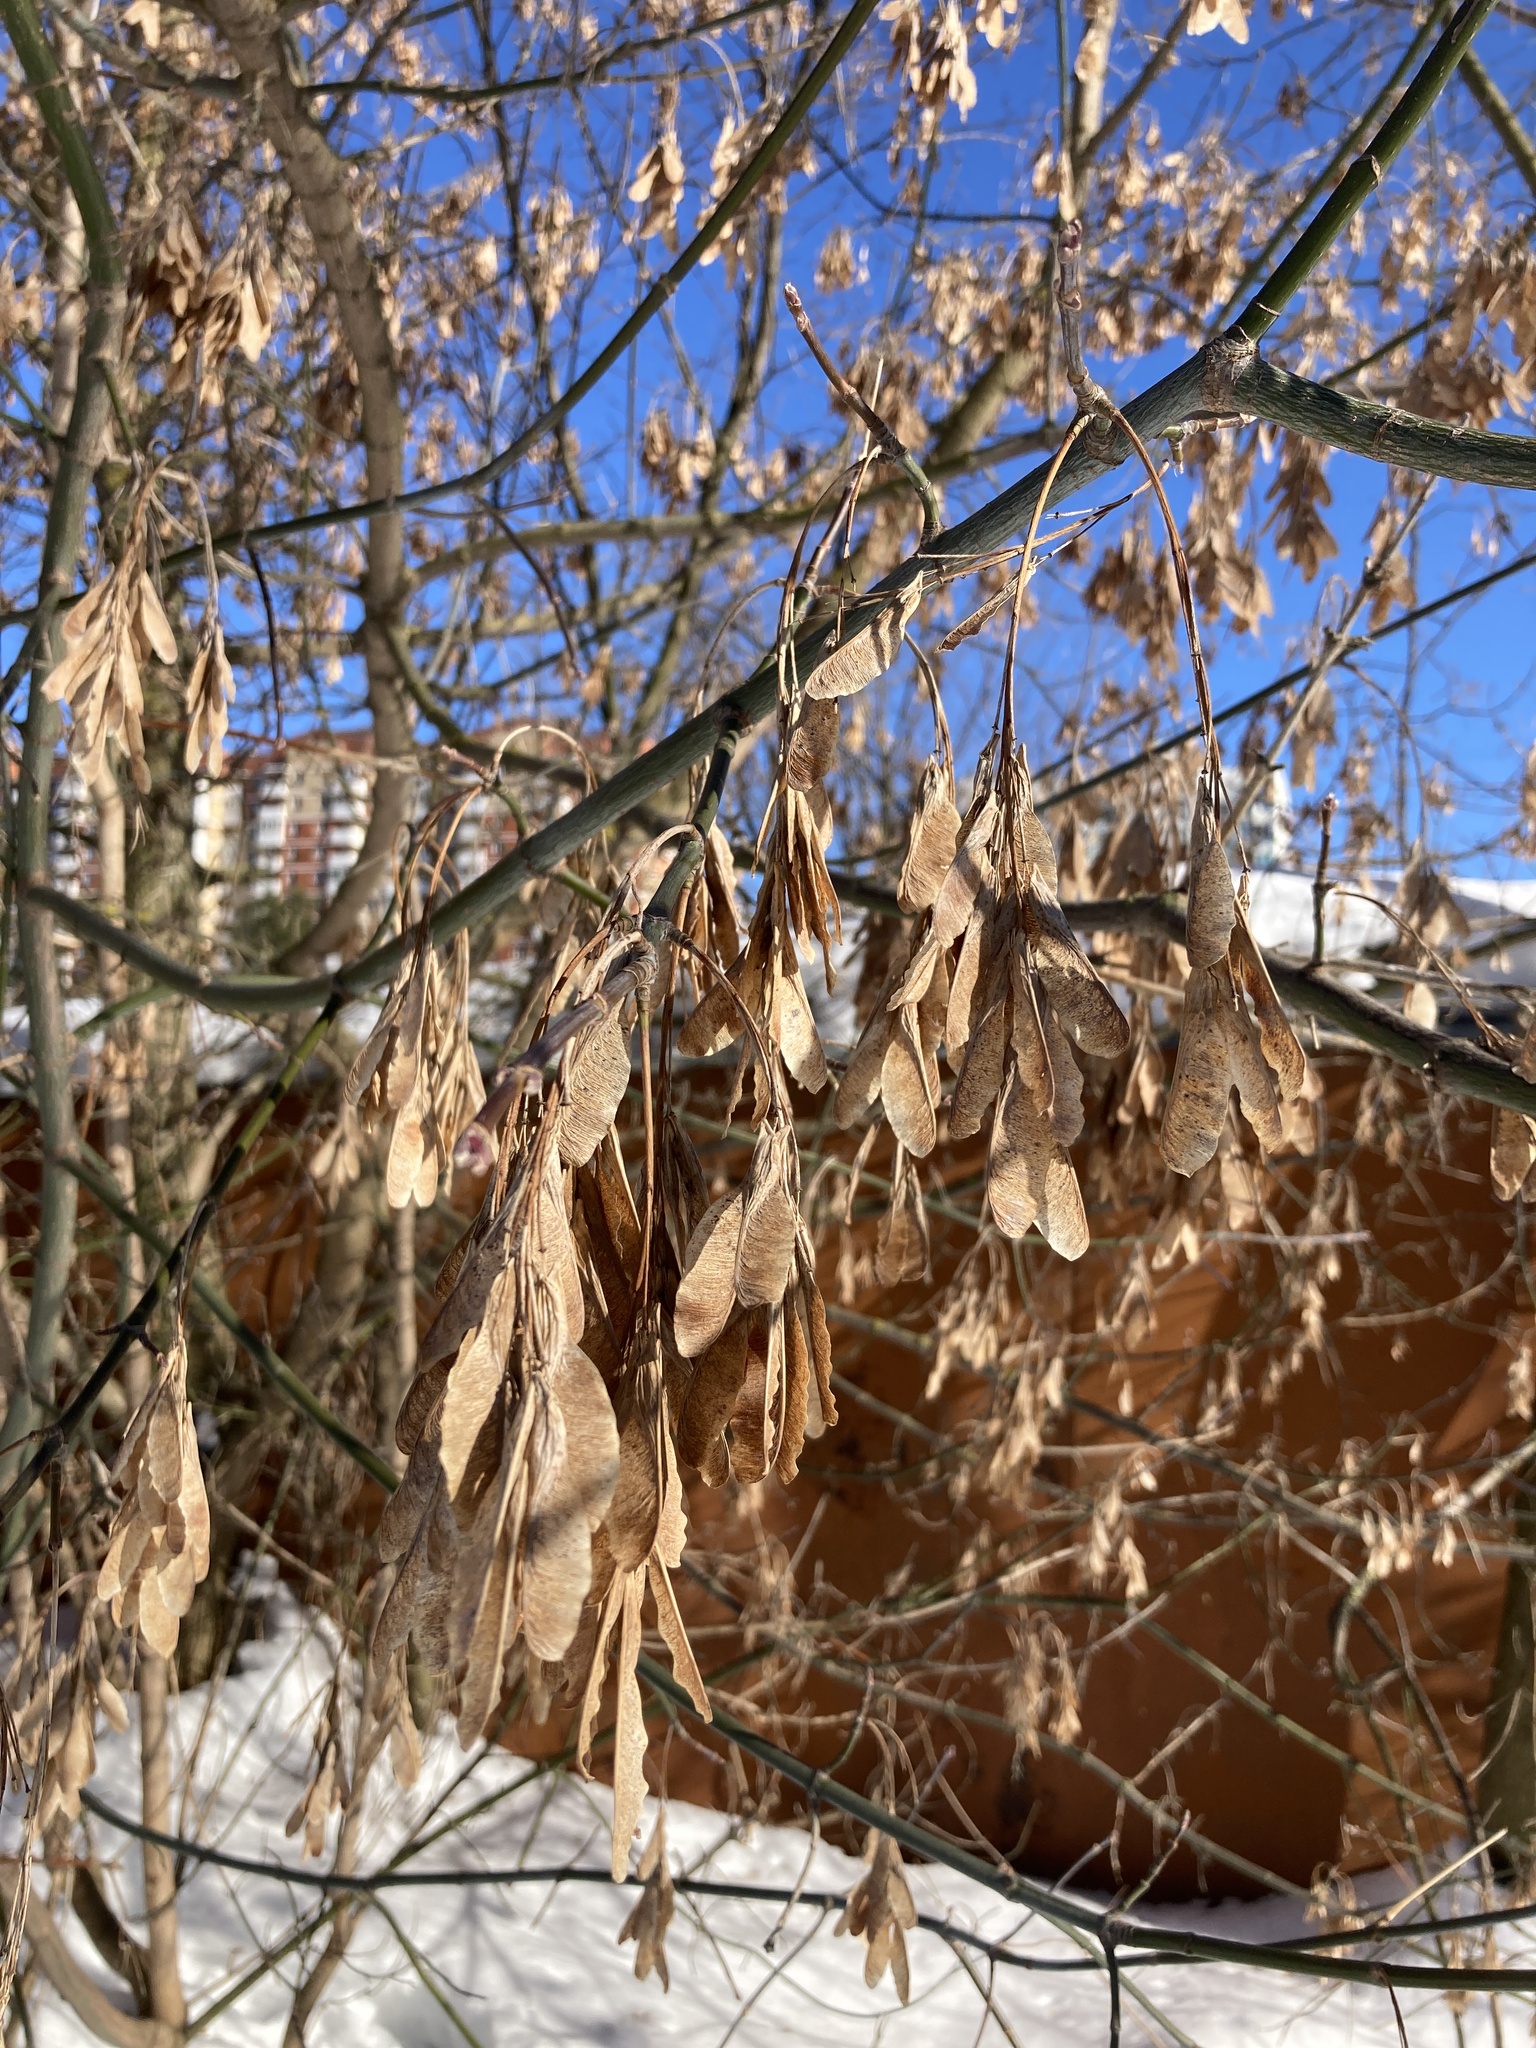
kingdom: Plantae
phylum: Tracheophyta
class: Magnoliopsida
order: Sapindales
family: Sapindaceae
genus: Acer
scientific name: Acer negundo
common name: Ashleaf maple
